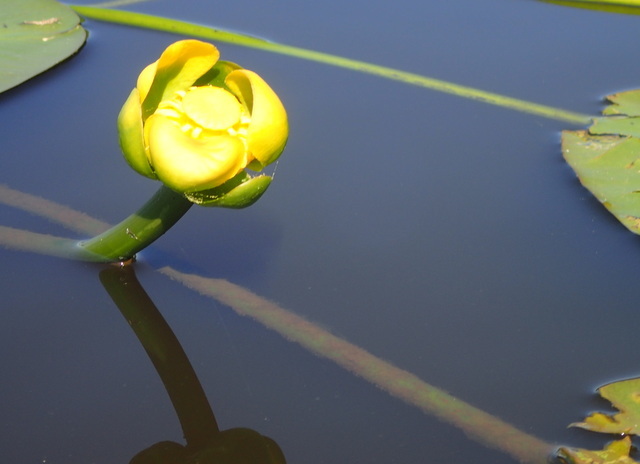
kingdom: Plantae
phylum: Tracheophyta
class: Magnoliopsida
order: Nymphaeales
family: Nymphaeaceae
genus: Nuphar
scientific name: Nuphar advena
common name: Spatter-dock
